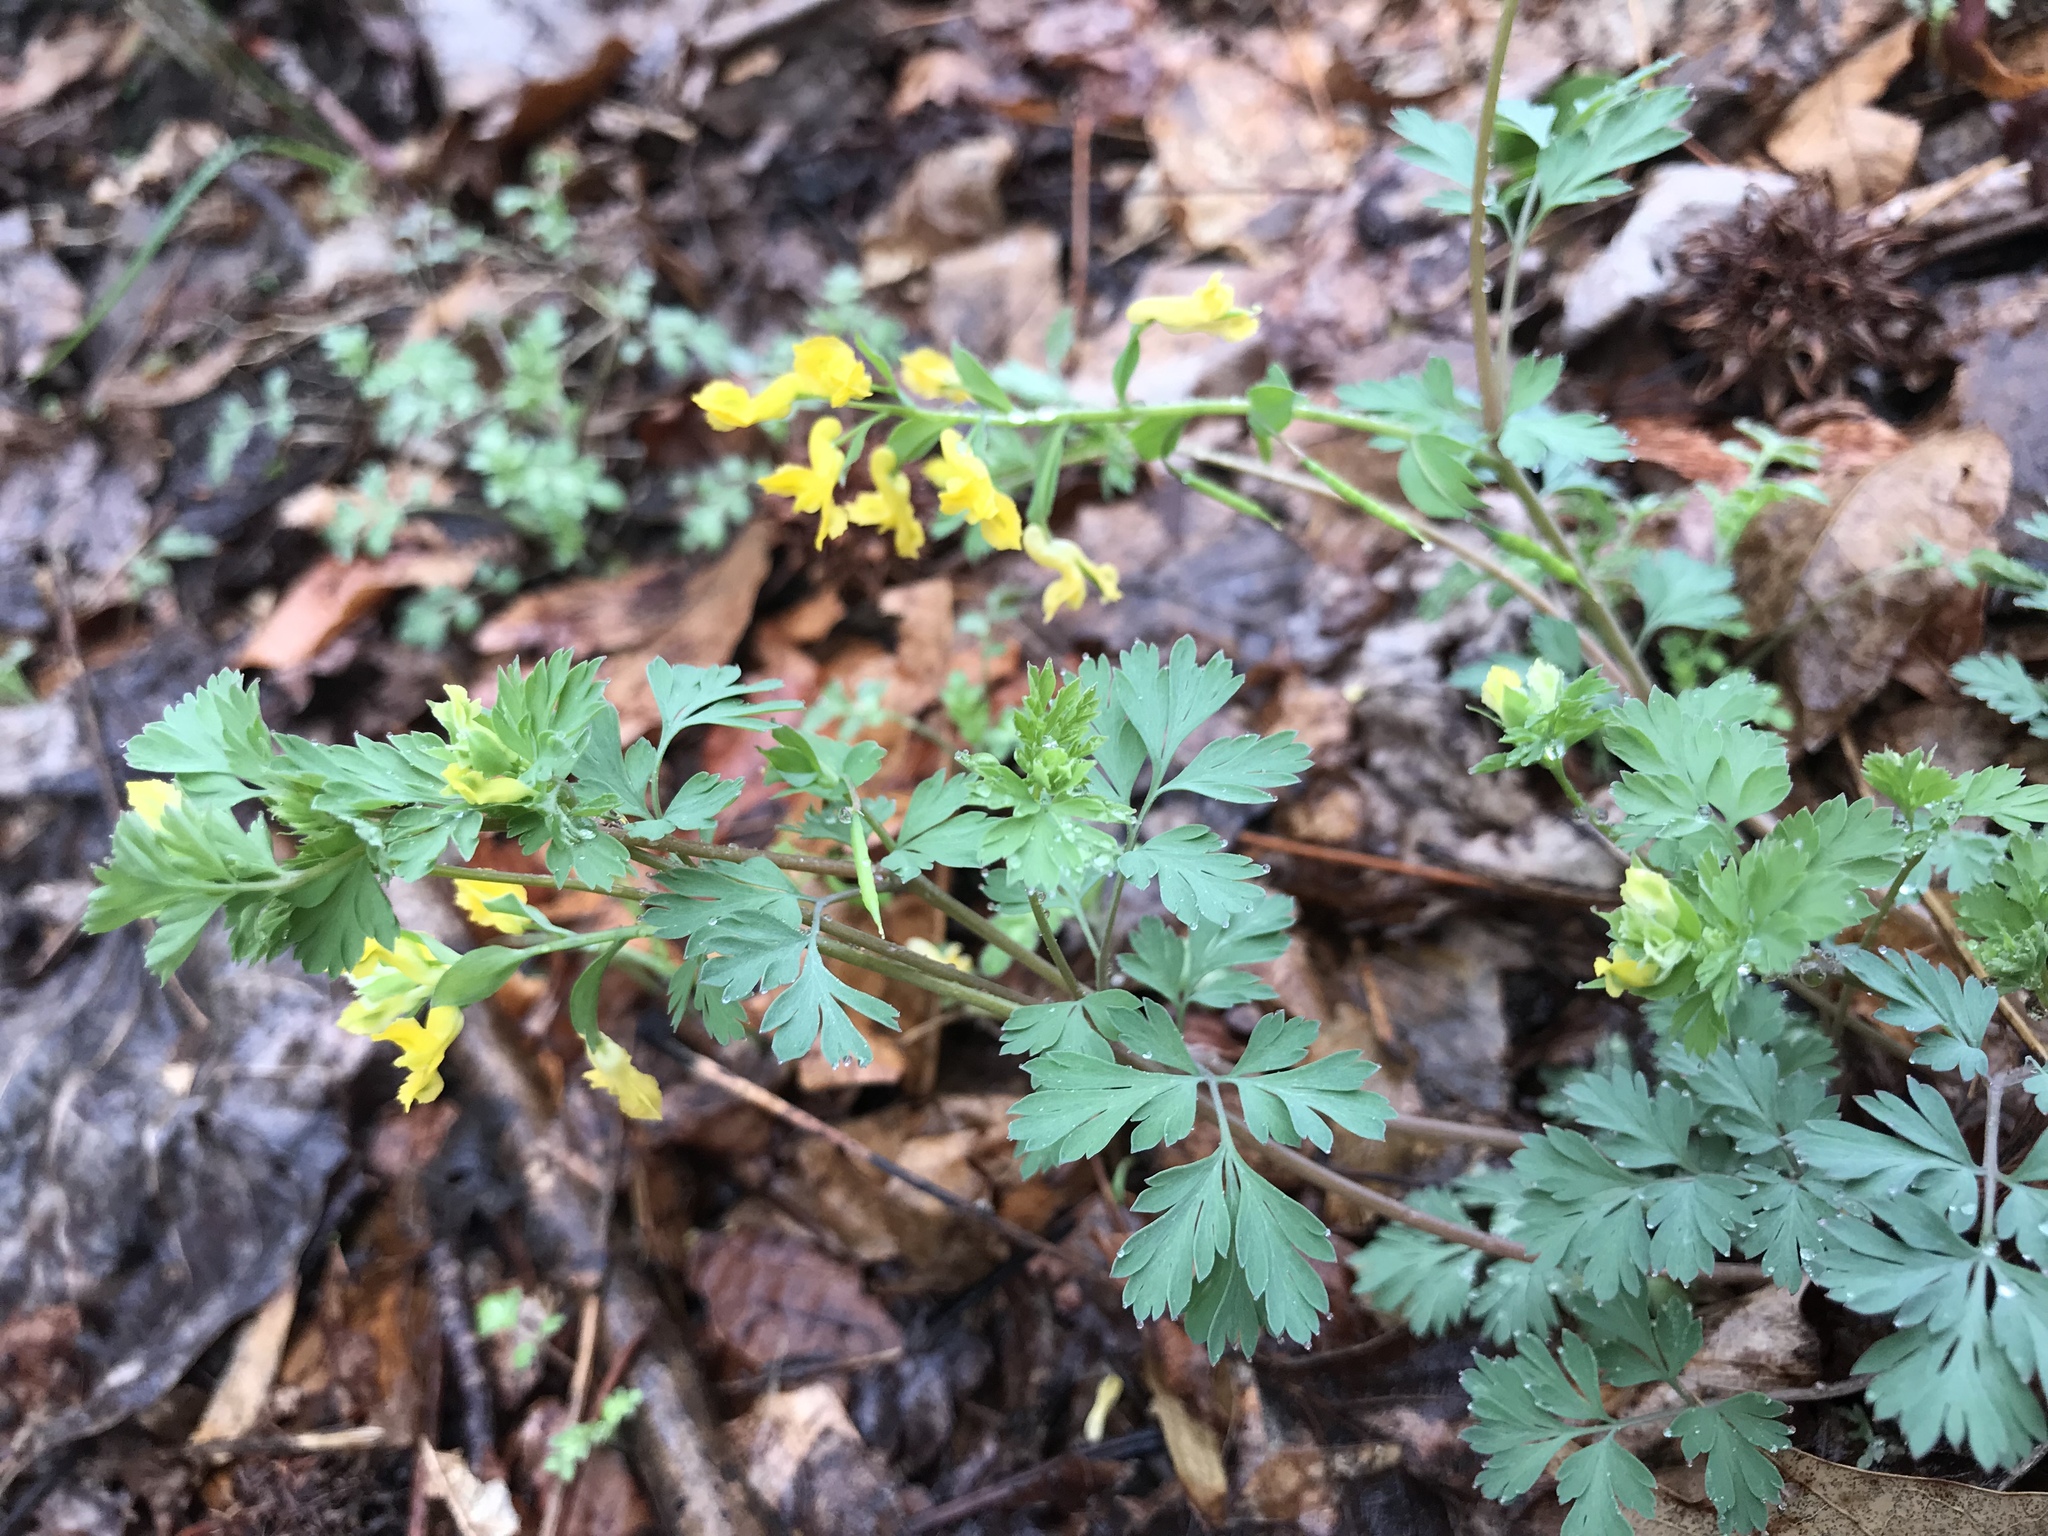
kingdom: Plantae
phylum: Tracheophyta
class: Magnoliopsida
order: Ranunculales
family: Papaveraceae
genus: Corydalis
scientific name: Corydalis flavula
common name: Yellow corydalis
